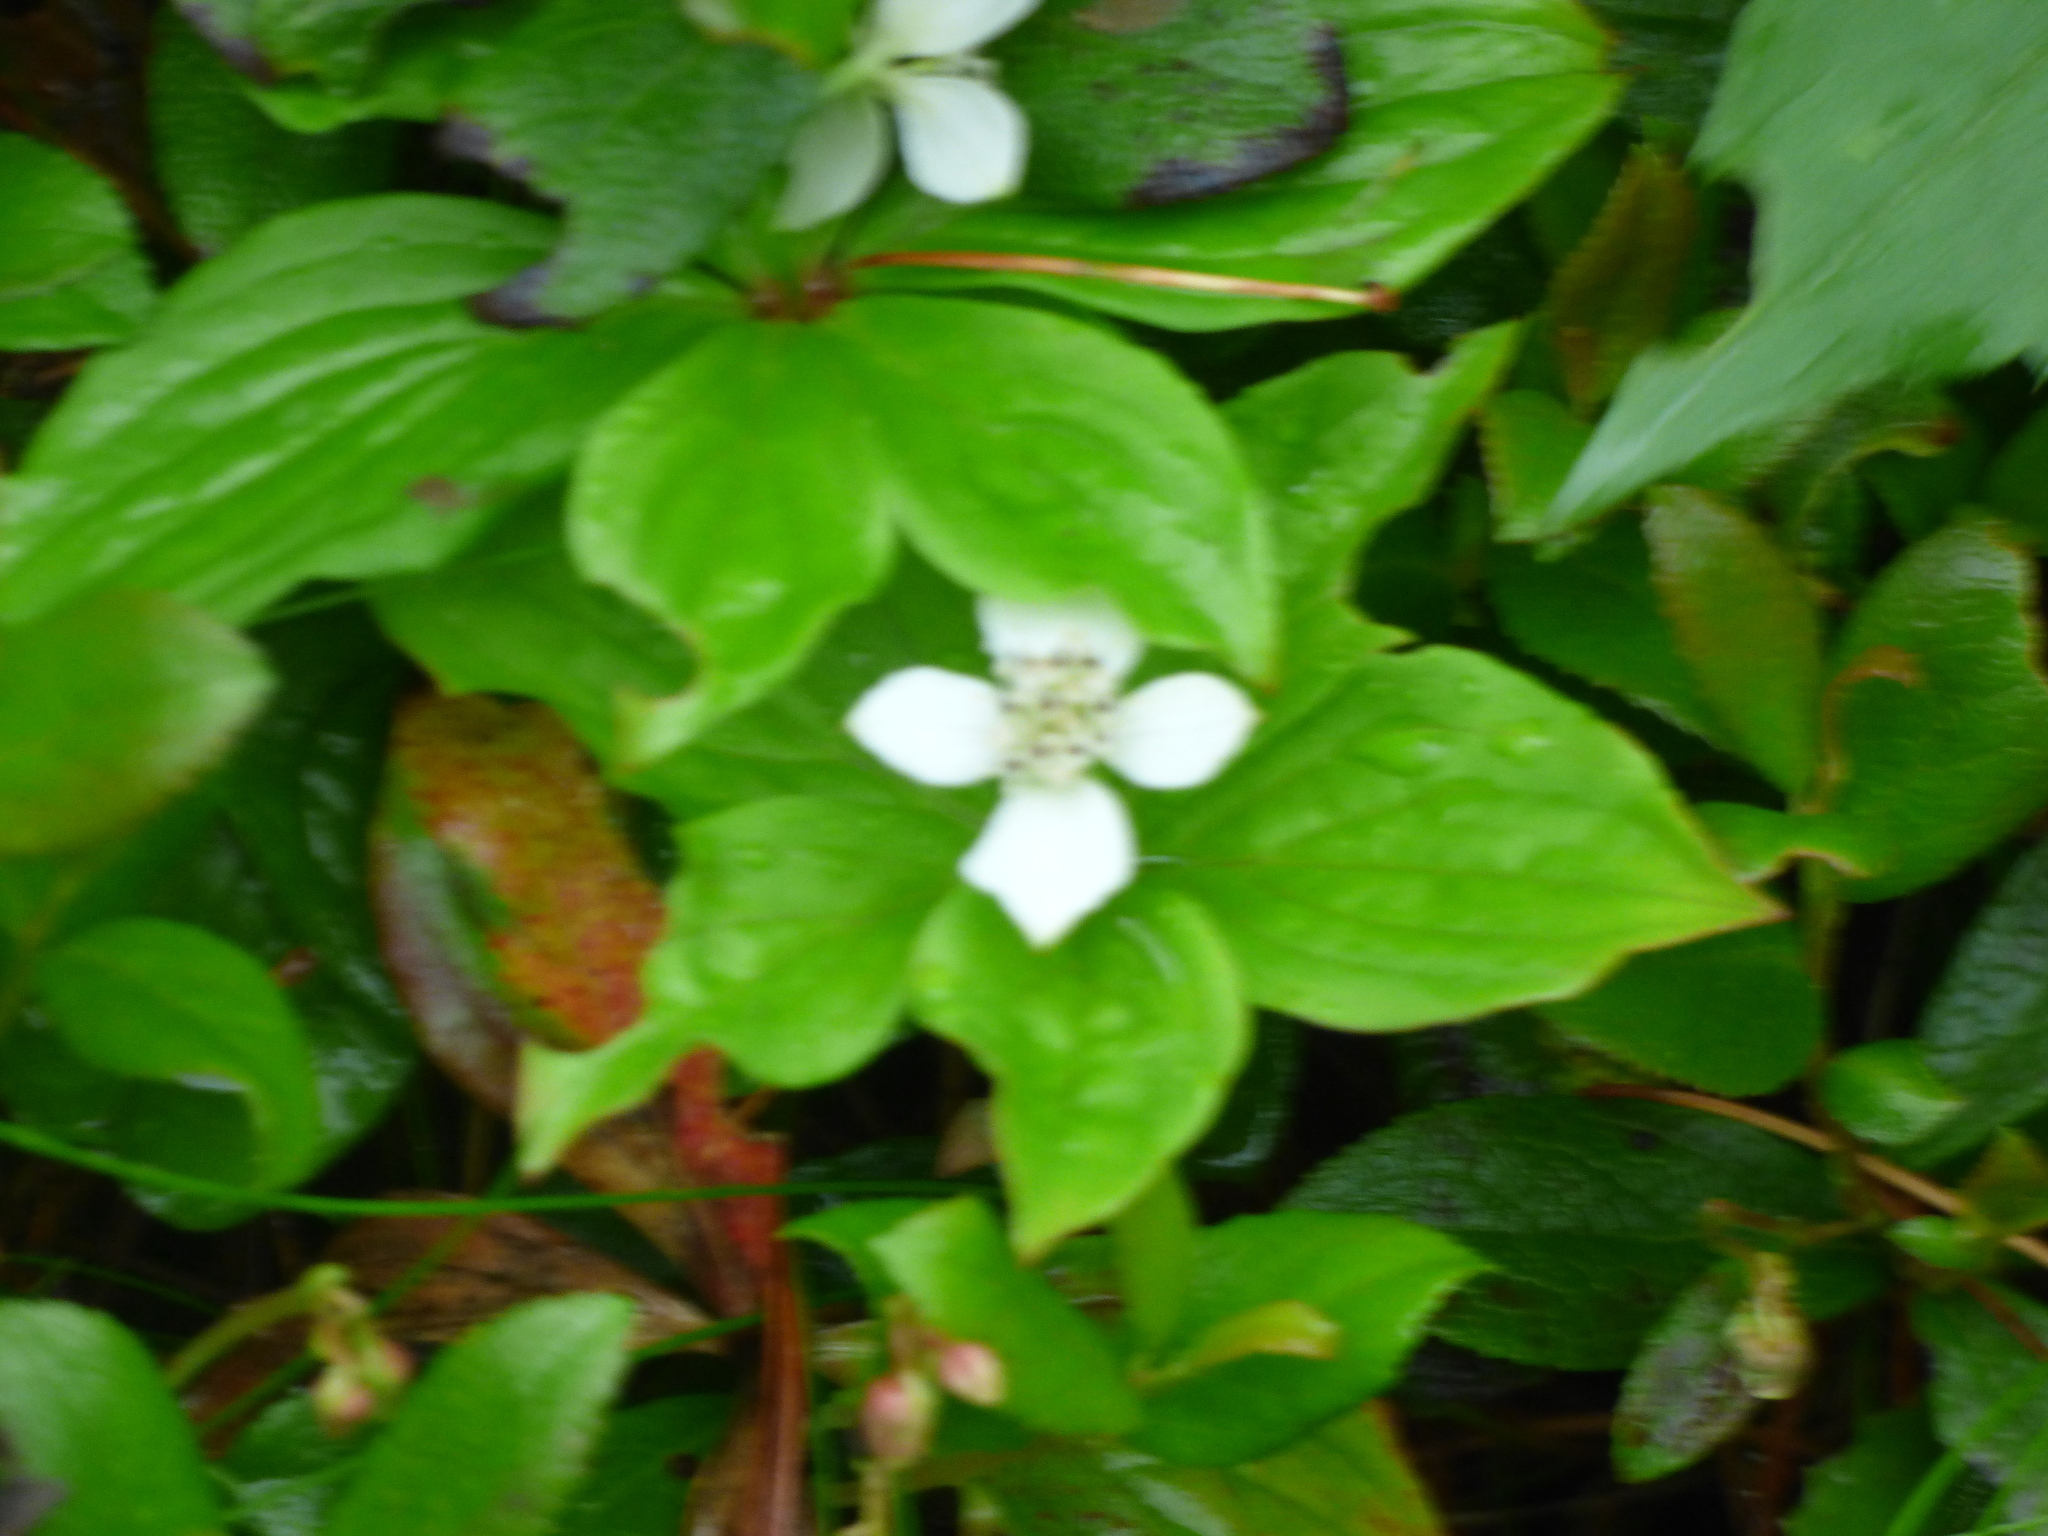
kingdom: Plantae
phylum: Tracheophyta
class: Magnoliopsida
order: Cornales
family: Cornaceae
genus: Cornus
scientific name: Cornus canadensis
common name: Creeping dogwood
